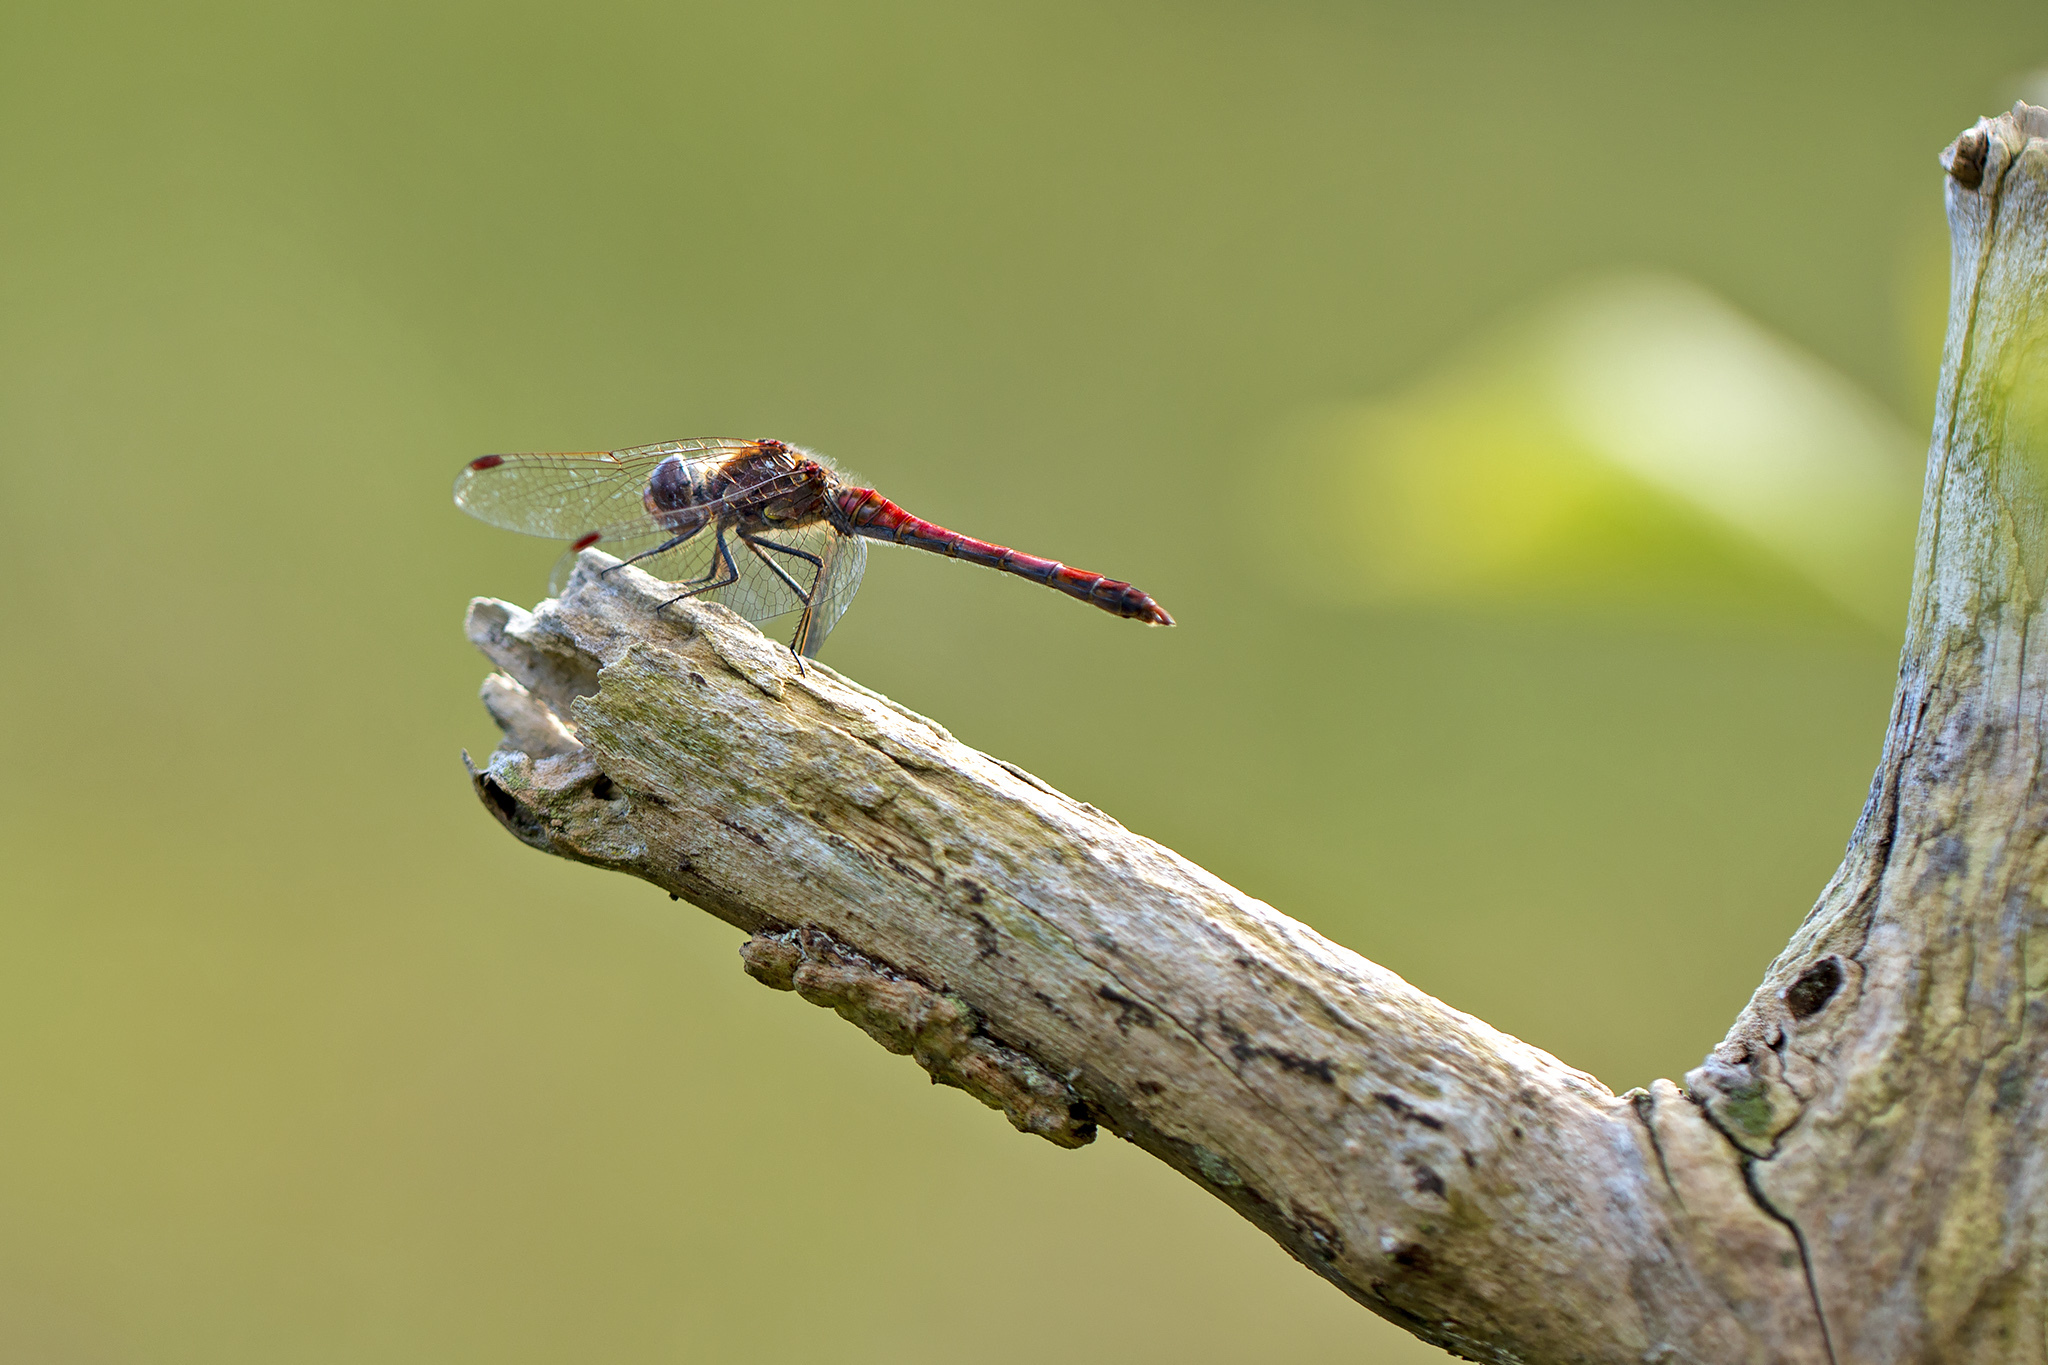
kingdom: Animalia
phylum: Arthropoda
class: Insecta
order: Odonata
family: Libellulidae
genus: Sympetrum
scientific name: Sympetrum striolatum
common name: Common darter
